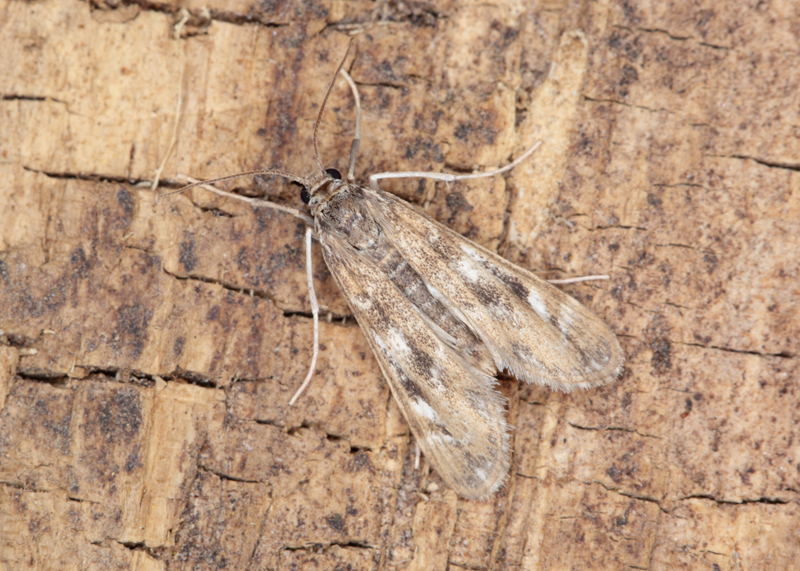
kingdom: Animalia
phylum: Arthropoda
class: Insecta
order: Lepidoptera
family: Crambidae
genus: Hygraula
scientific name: Hygraula nitens
